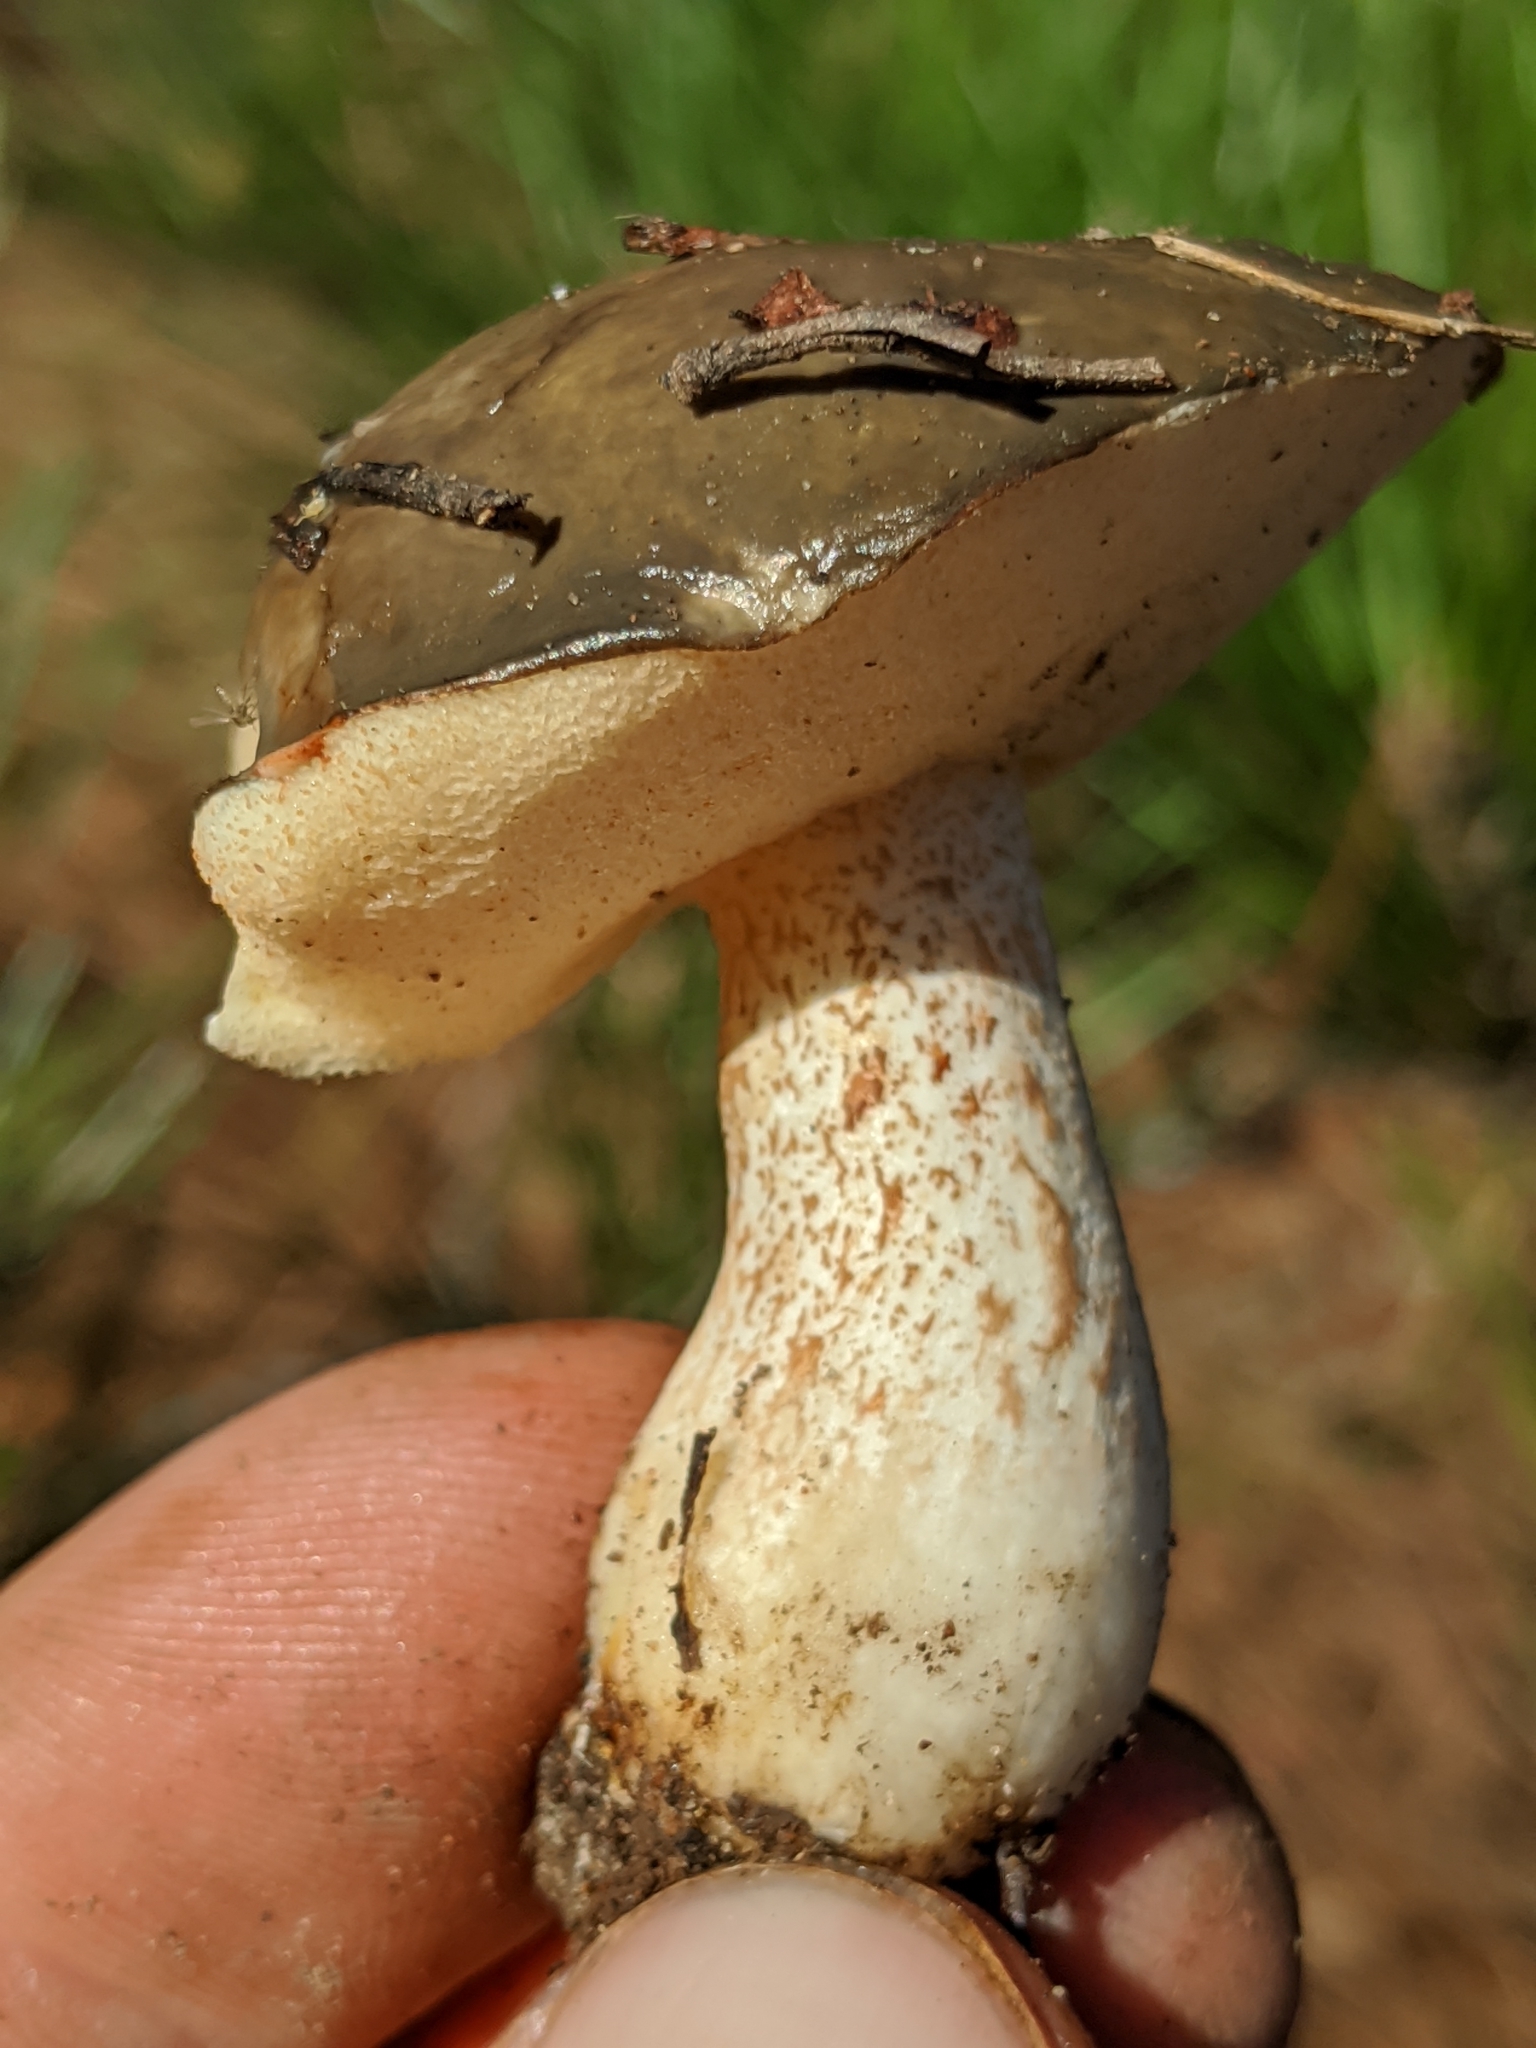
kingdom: Fungi
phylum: Basidiomycota
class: Agaricomycetes
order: Boletales
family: Suillaceae
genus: Suillus
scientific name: Suillus pungens
